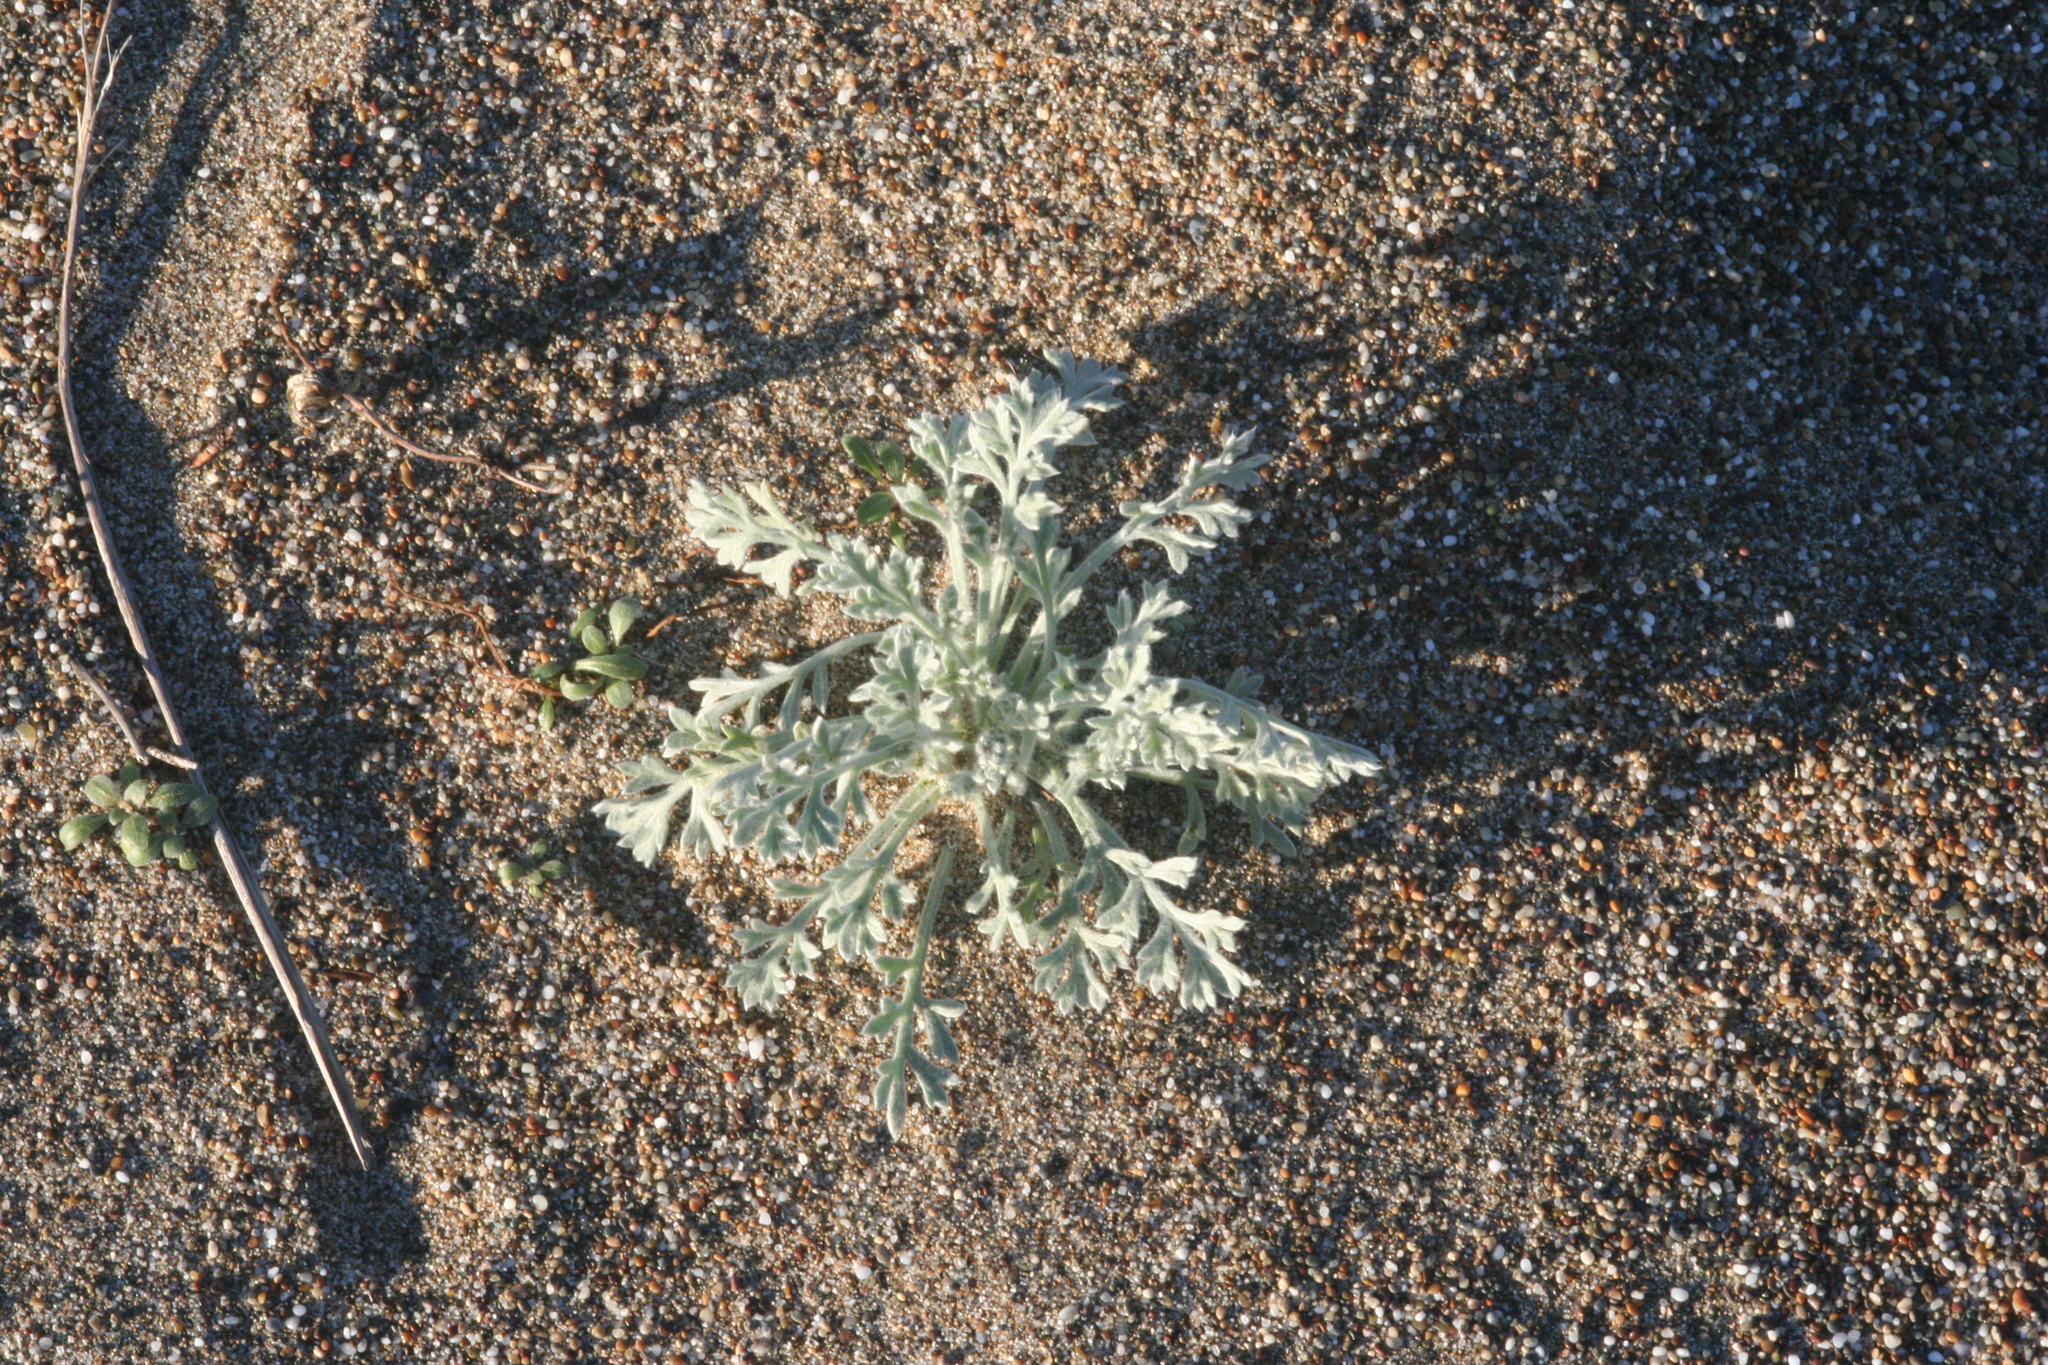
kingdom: Plantae
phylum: Tracheophyta
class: Magnoliopsida
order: Asterales
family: Asteraceae
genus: Artemisia
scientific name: Artemisia pycnocephala
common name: Coastal sagewort
